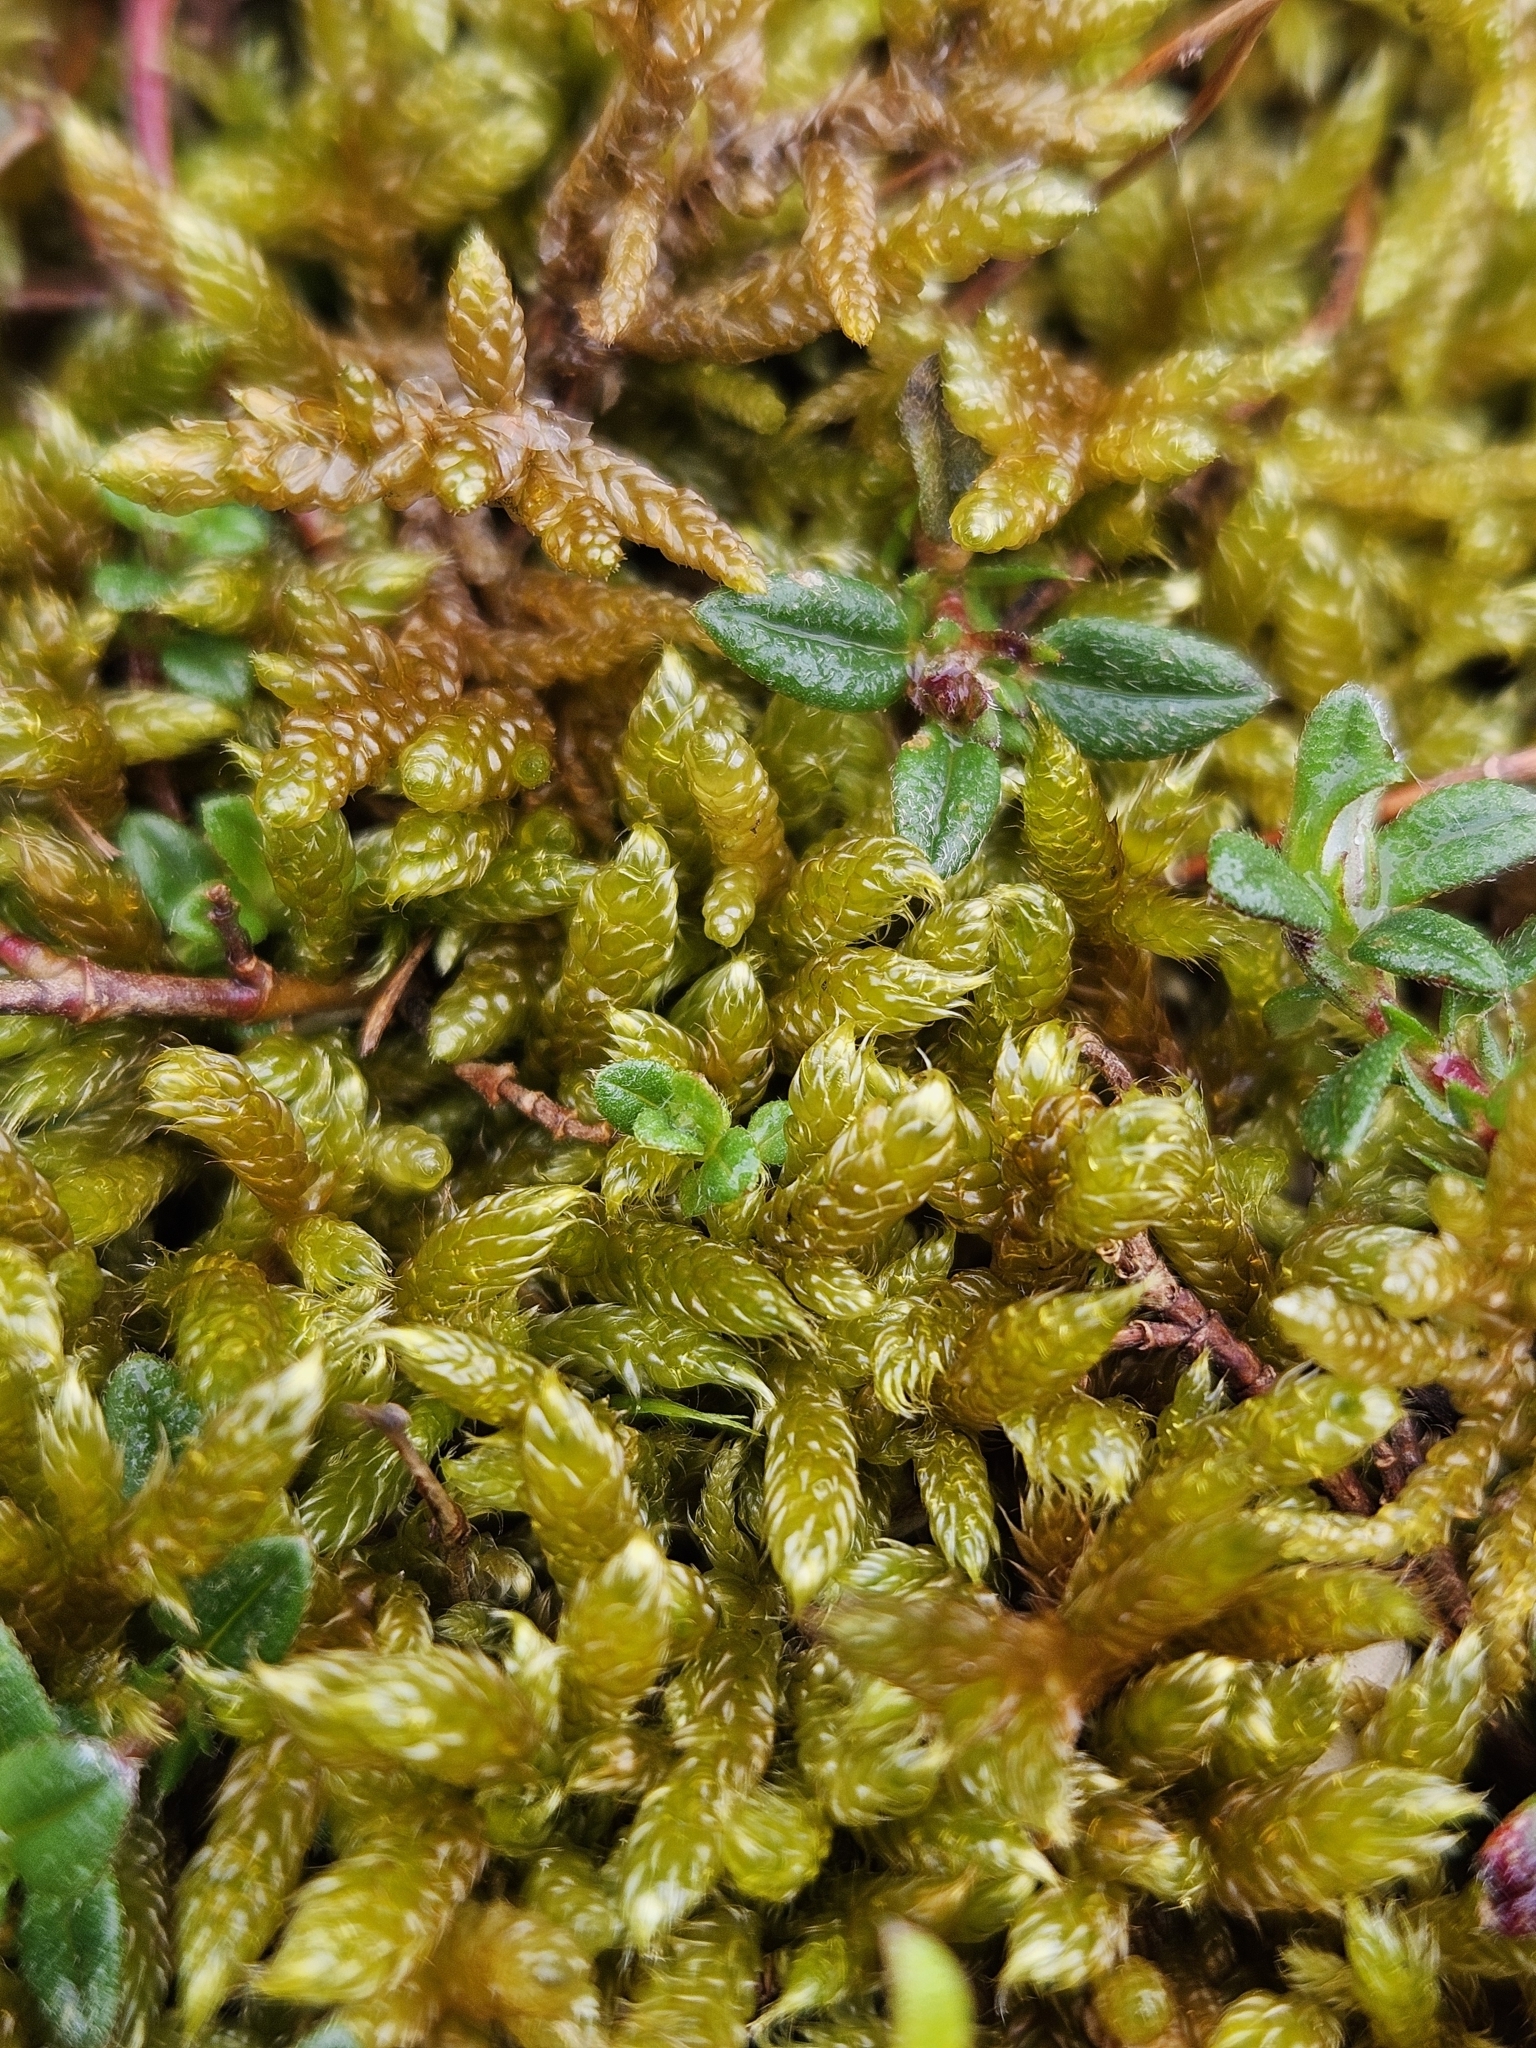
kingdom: Plantae
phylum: Bryophyta
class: Bryopsida
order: Hypnales
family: Hypnaceae
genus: Hypnum
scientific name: Hypnum cupressiforme
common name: Cypress-leaved plait-moss
